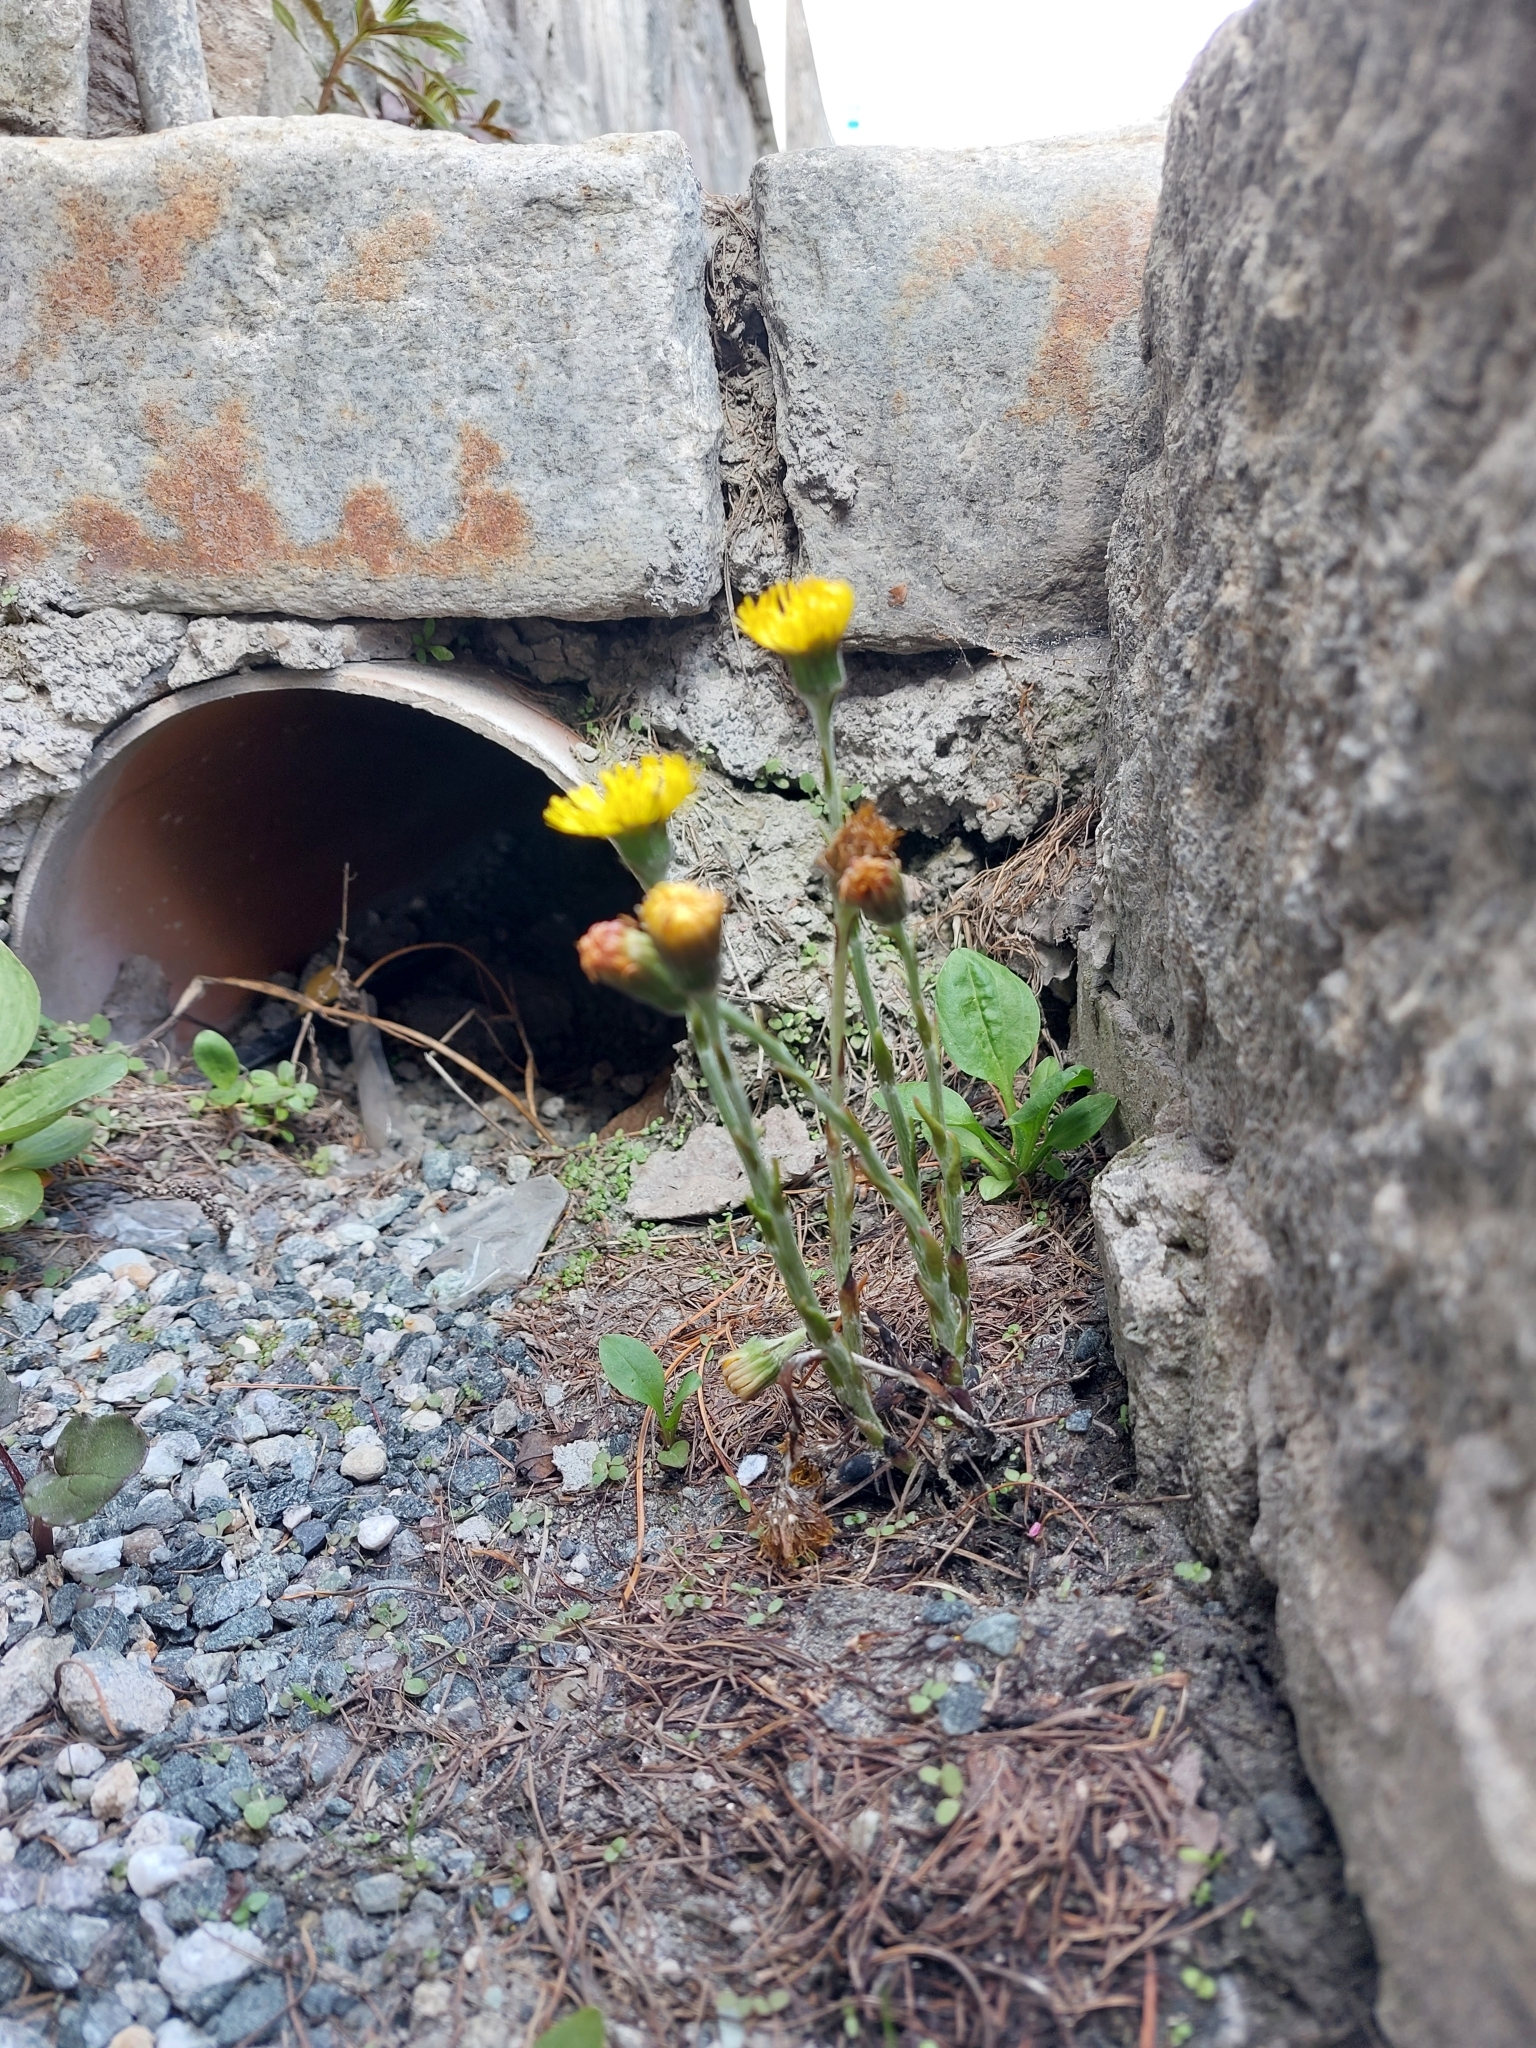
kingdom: Plantae
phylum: Tracheophyta
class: Magnoliopsida
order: Asterales
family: Asteraceae
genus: Tussilago
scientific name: Tussilago farfara
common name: Coltsfoot
